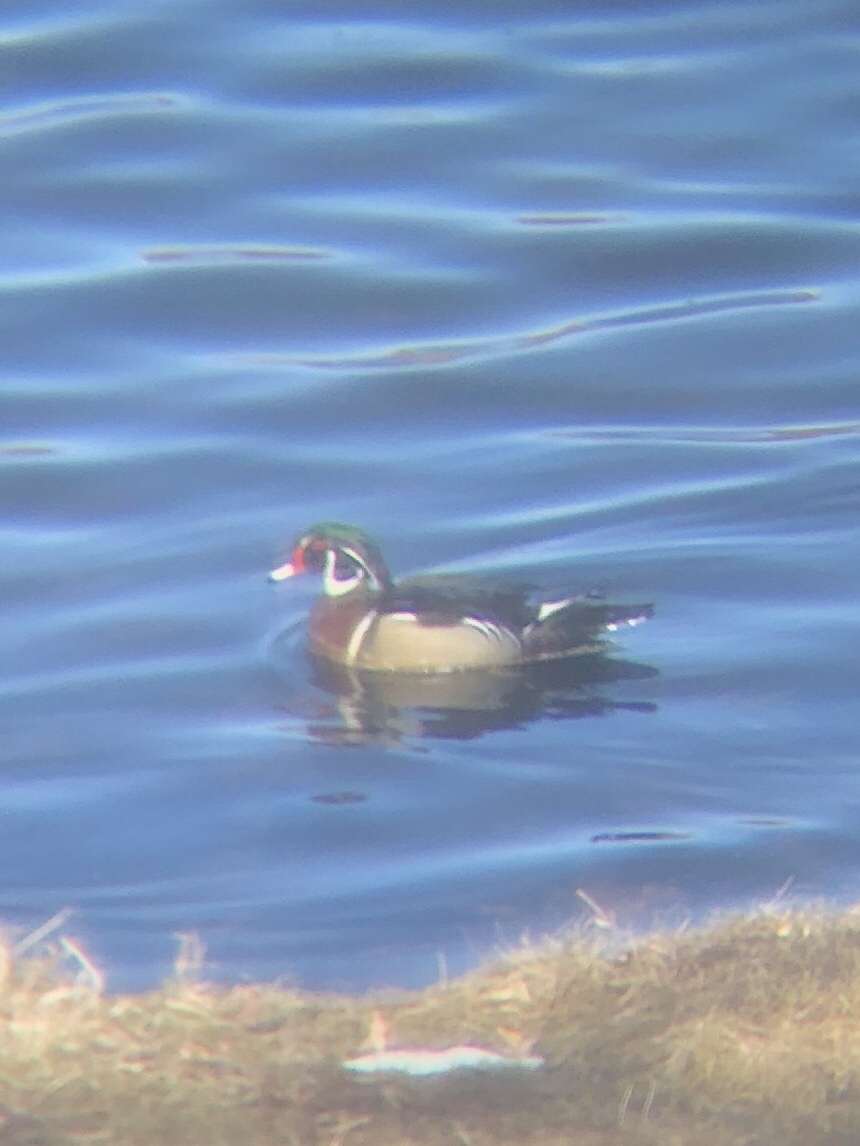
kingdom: Animalia
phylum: Chordata
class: Aves
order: Anseriformes
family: Anatidae
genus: Aix
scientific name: Aix sponsa
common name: Wood duck
